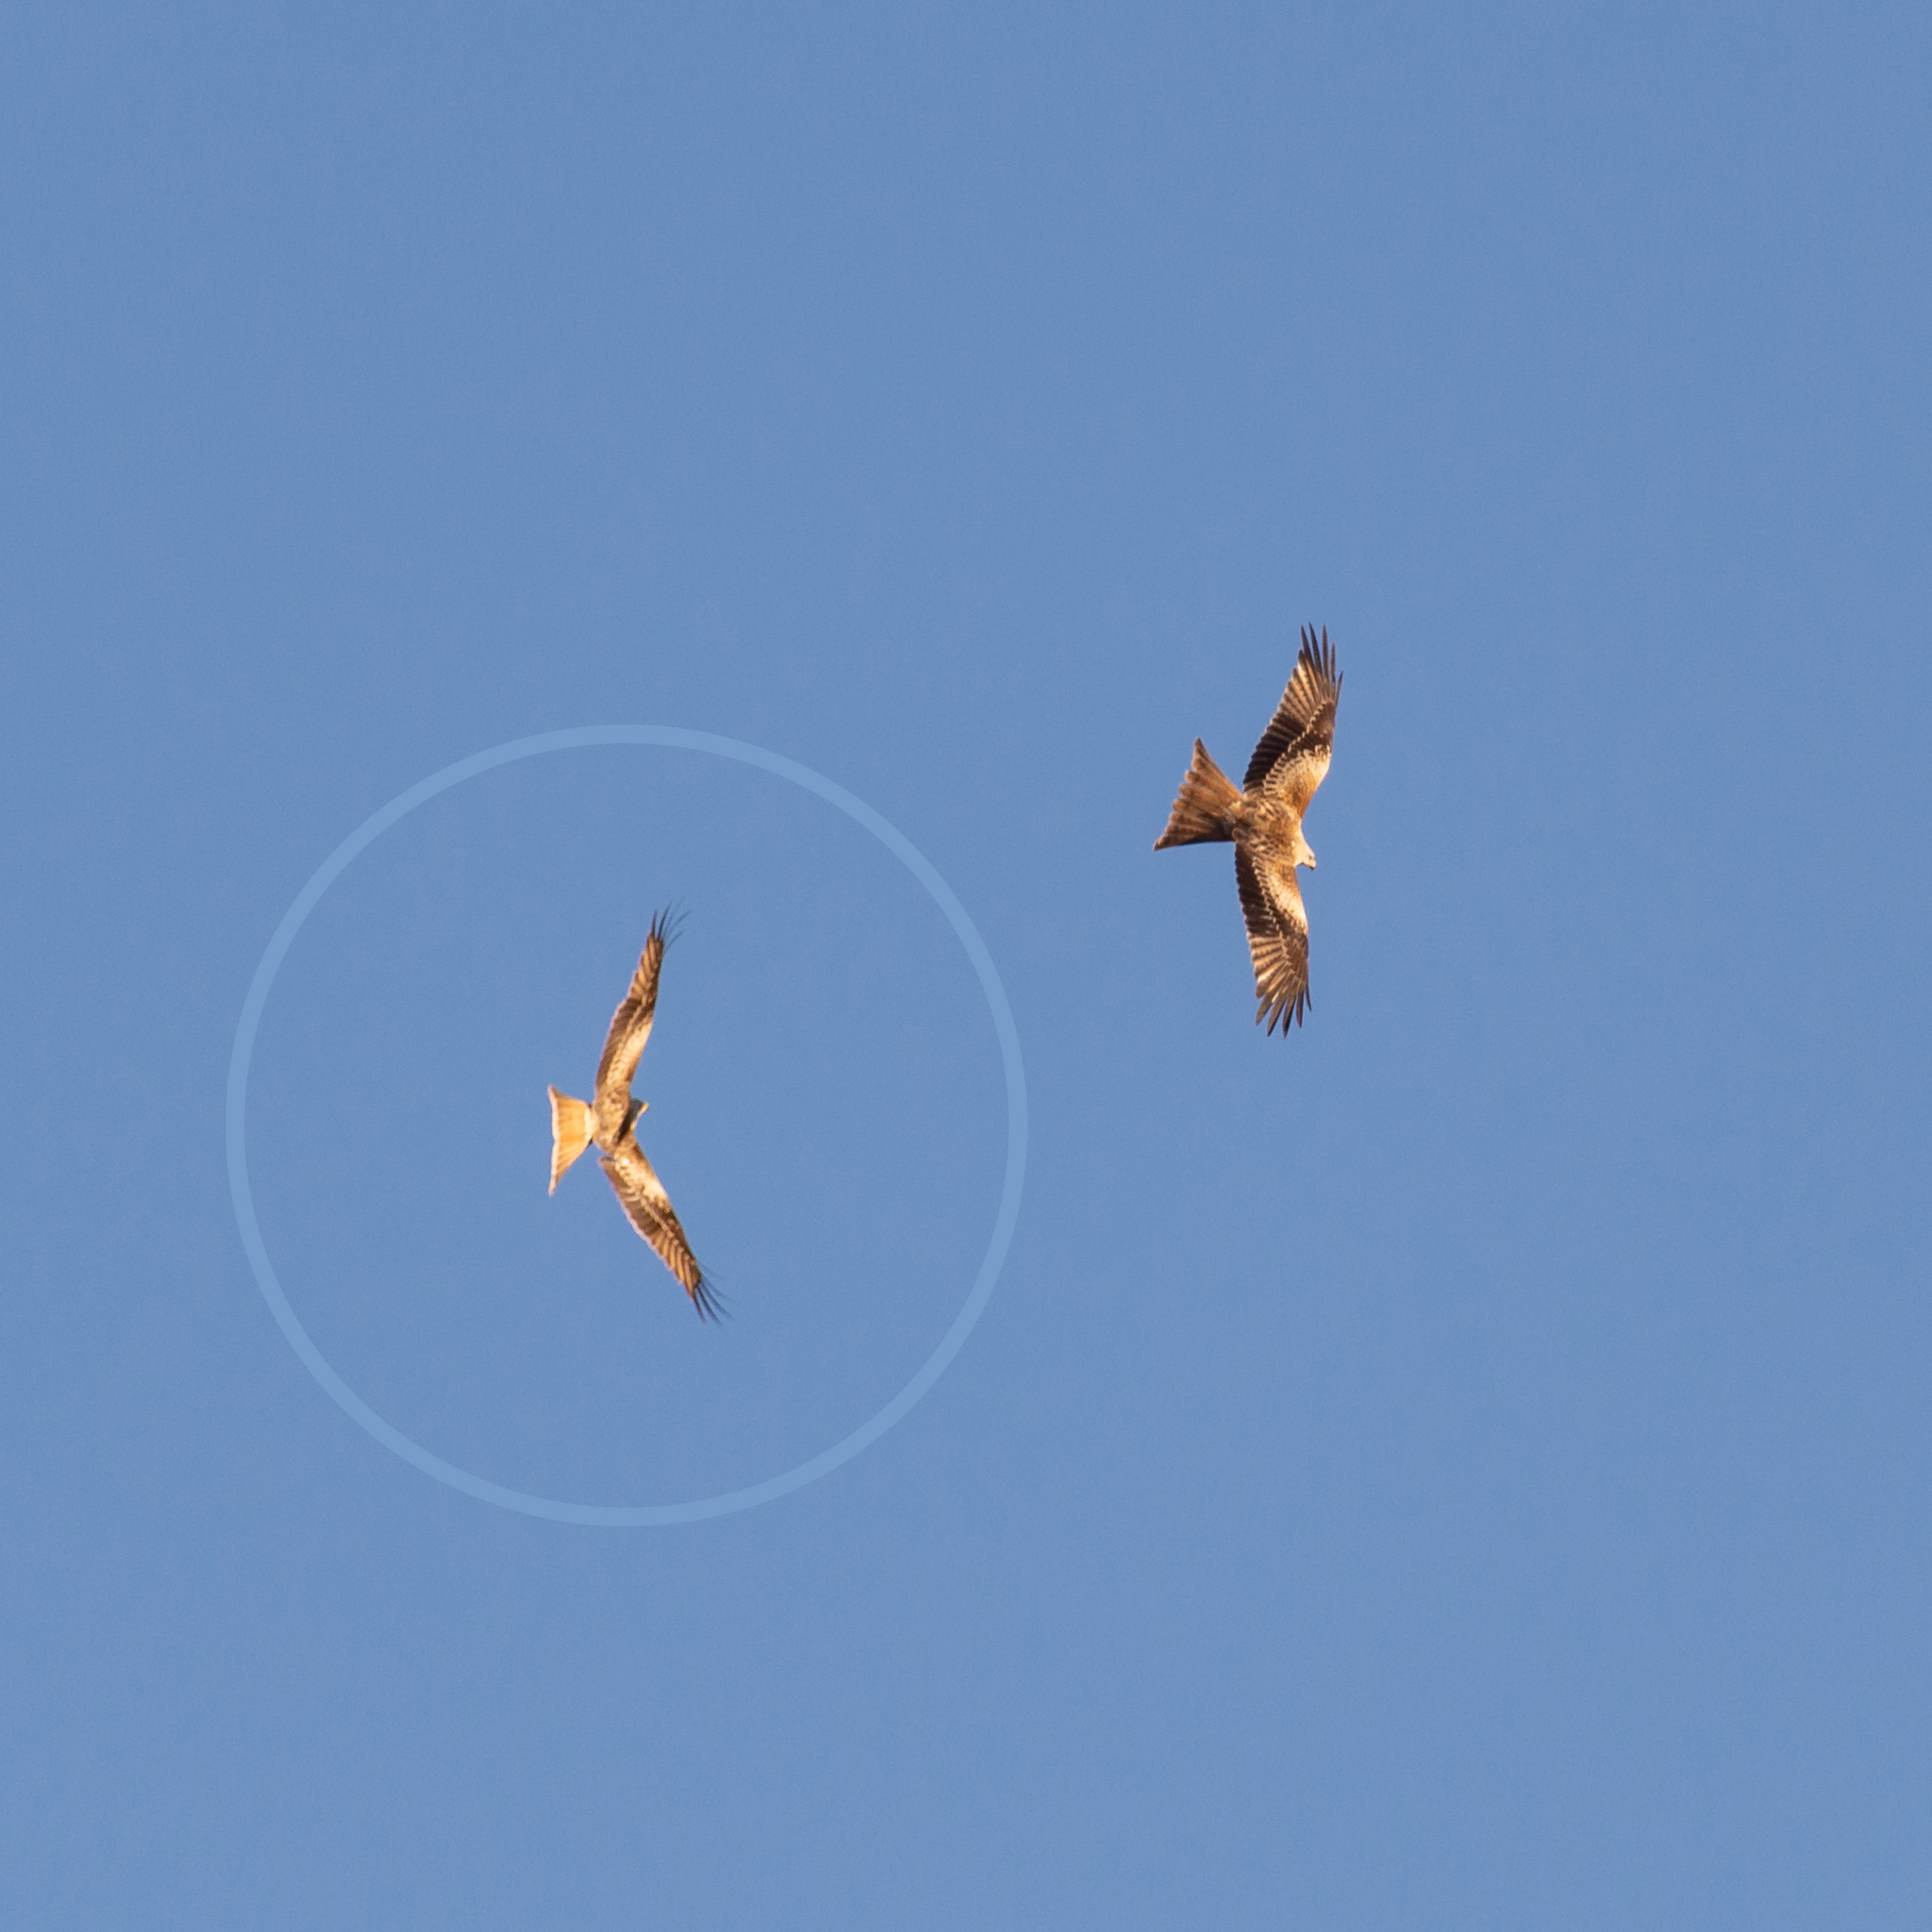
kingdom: Animalia
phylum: Chordata
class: Aves
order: Accipitriformes
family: Accipitridae
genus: Milvus
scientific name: Milvus milvus
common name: Red kite
